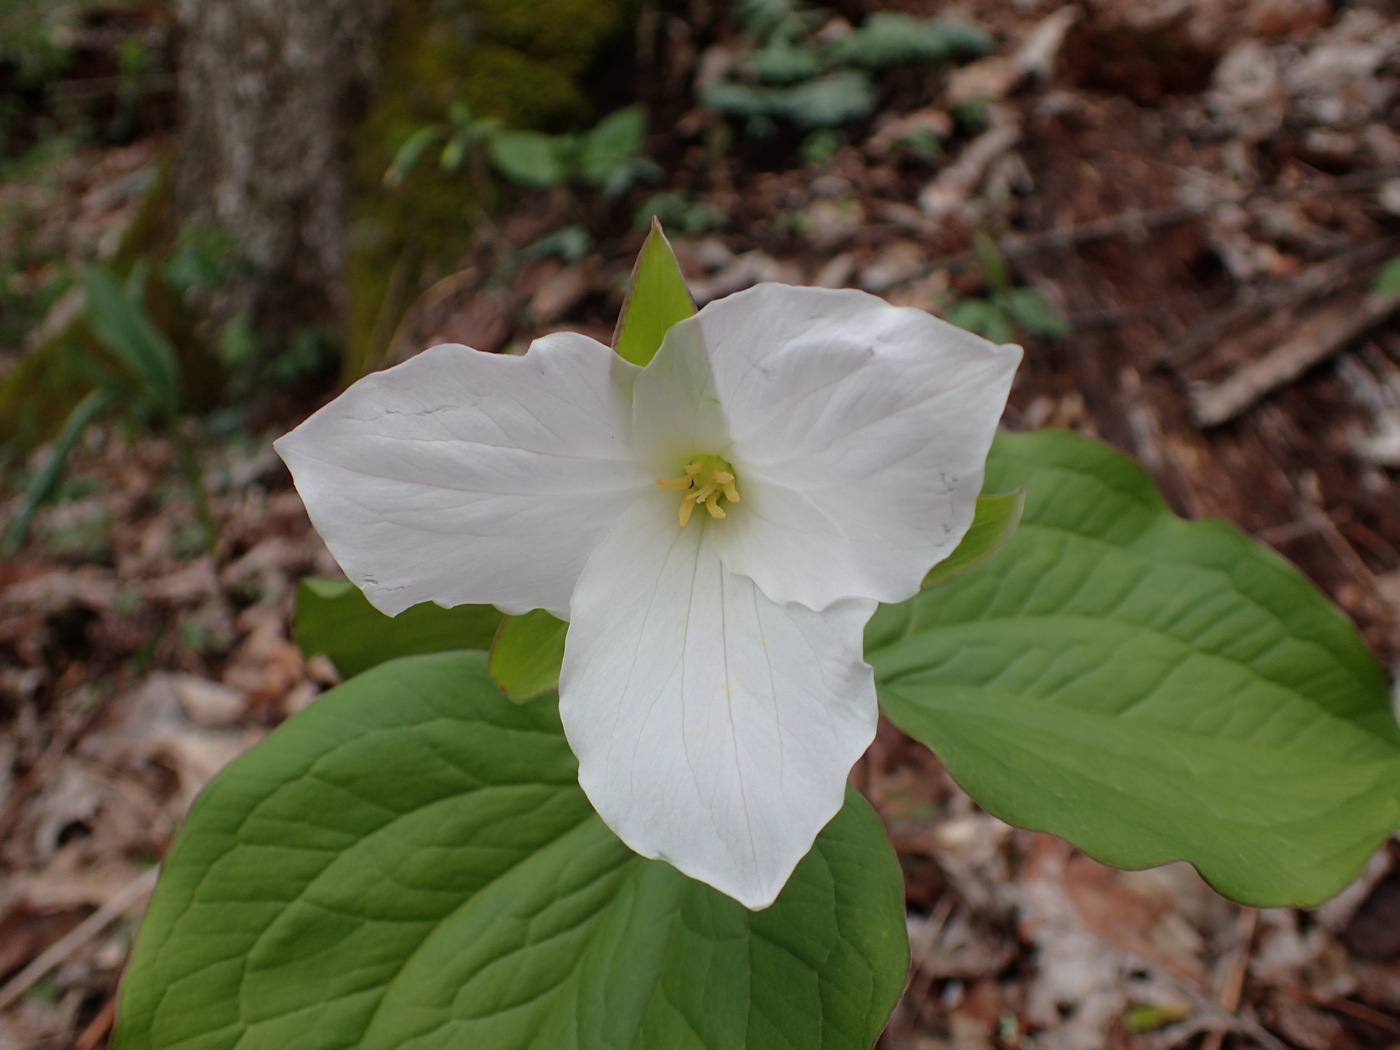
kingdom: Plantae
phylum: Tracheophyta
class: Liliopsida
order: Liliales
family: Melanthiaceae
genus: Trillium
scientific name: Trillium grandiflorum
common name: Great white trillium
